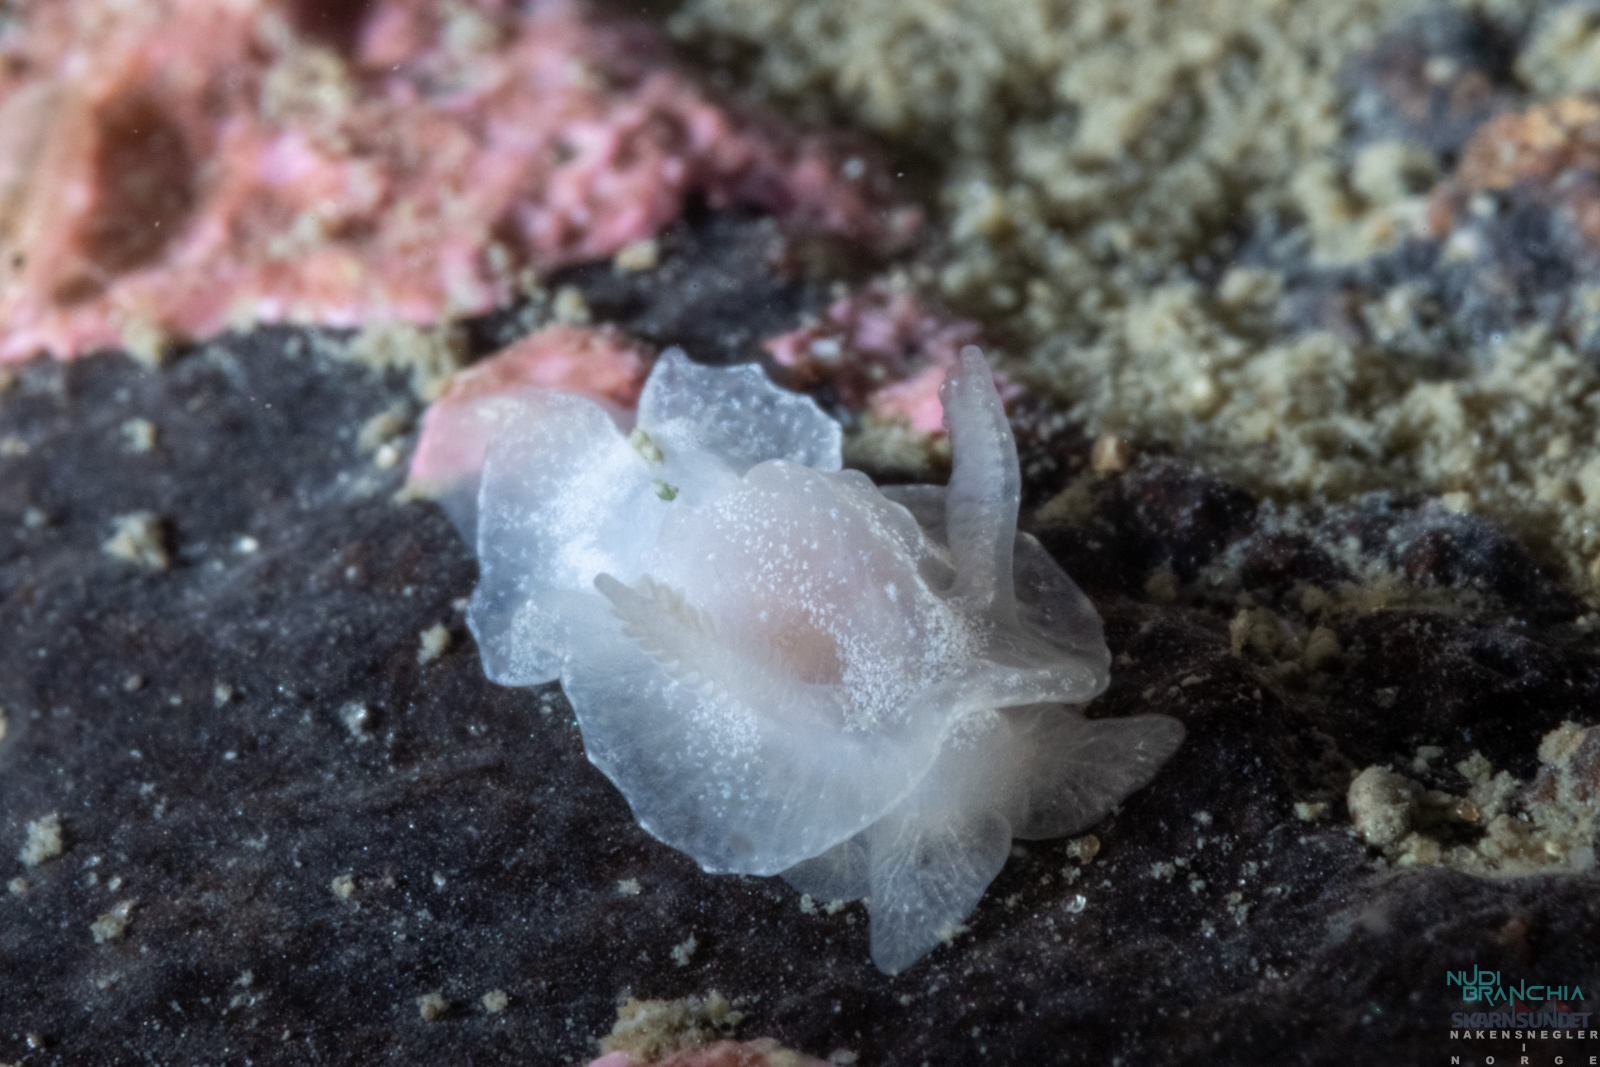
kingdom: Animalia
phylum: Mollusca
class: Gastropoda
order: Nudibranchia
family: Goniodorididae
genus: Okenia
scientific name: Okenia
